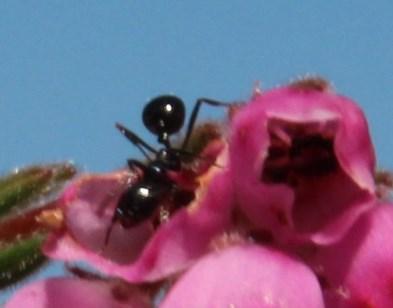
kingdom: Animalia
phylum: Arthropoda
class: Insecta
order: Hymenoptera
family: Formicidae
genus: Monomorium
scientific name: Monomorium excelsior
